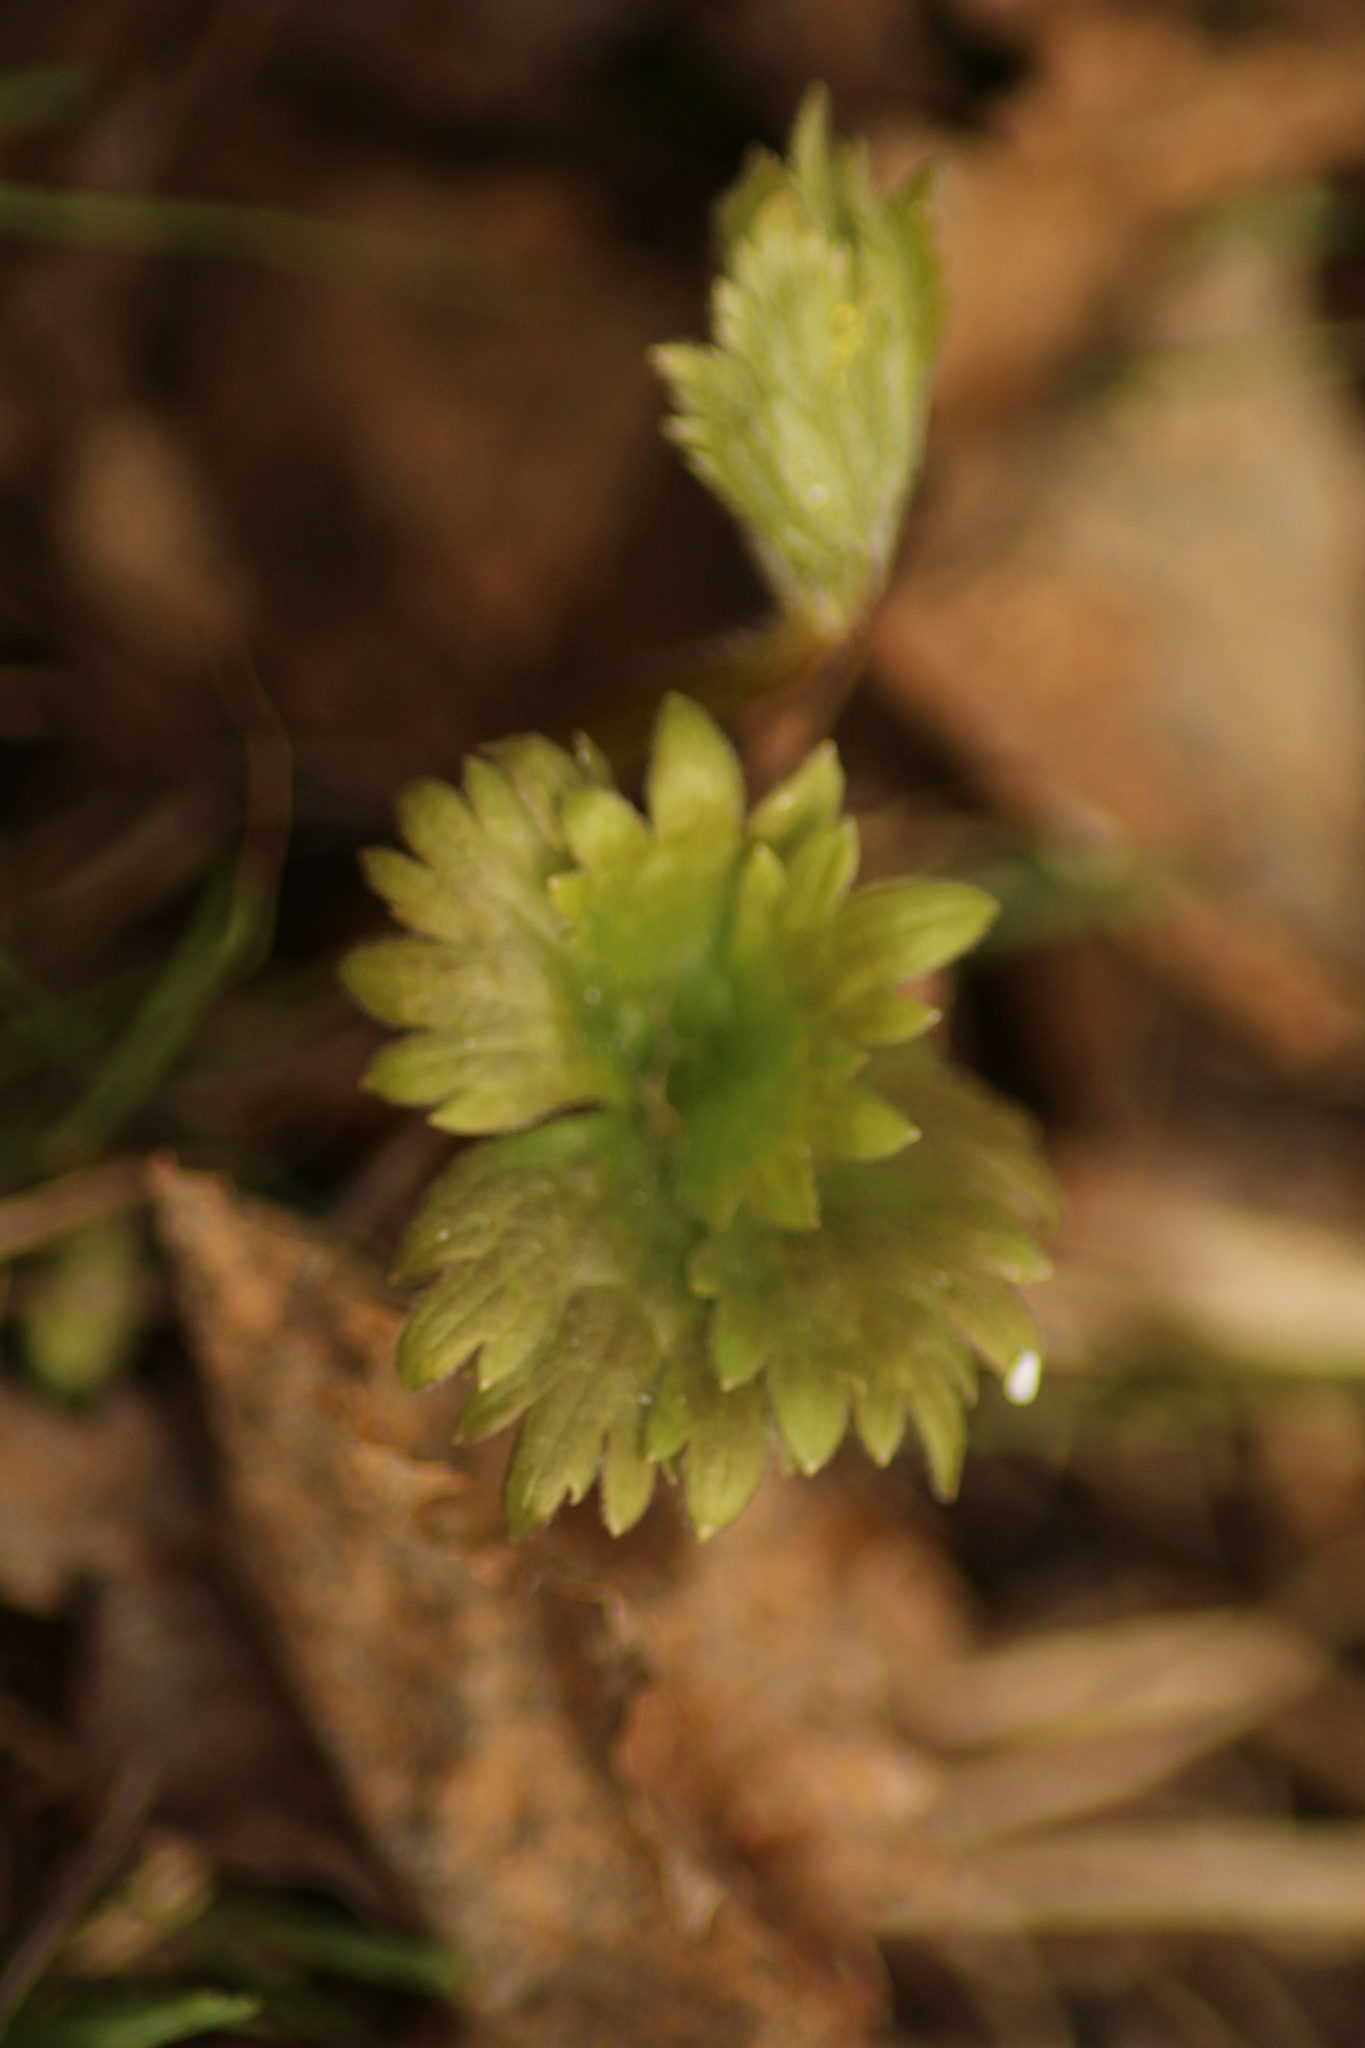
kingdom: Plantae
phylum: Tracheophyta
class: Magnoliopsida
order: Ranunculales
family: Ranunculaceae
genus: Aconitum
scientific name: Aconitum septentrionale
